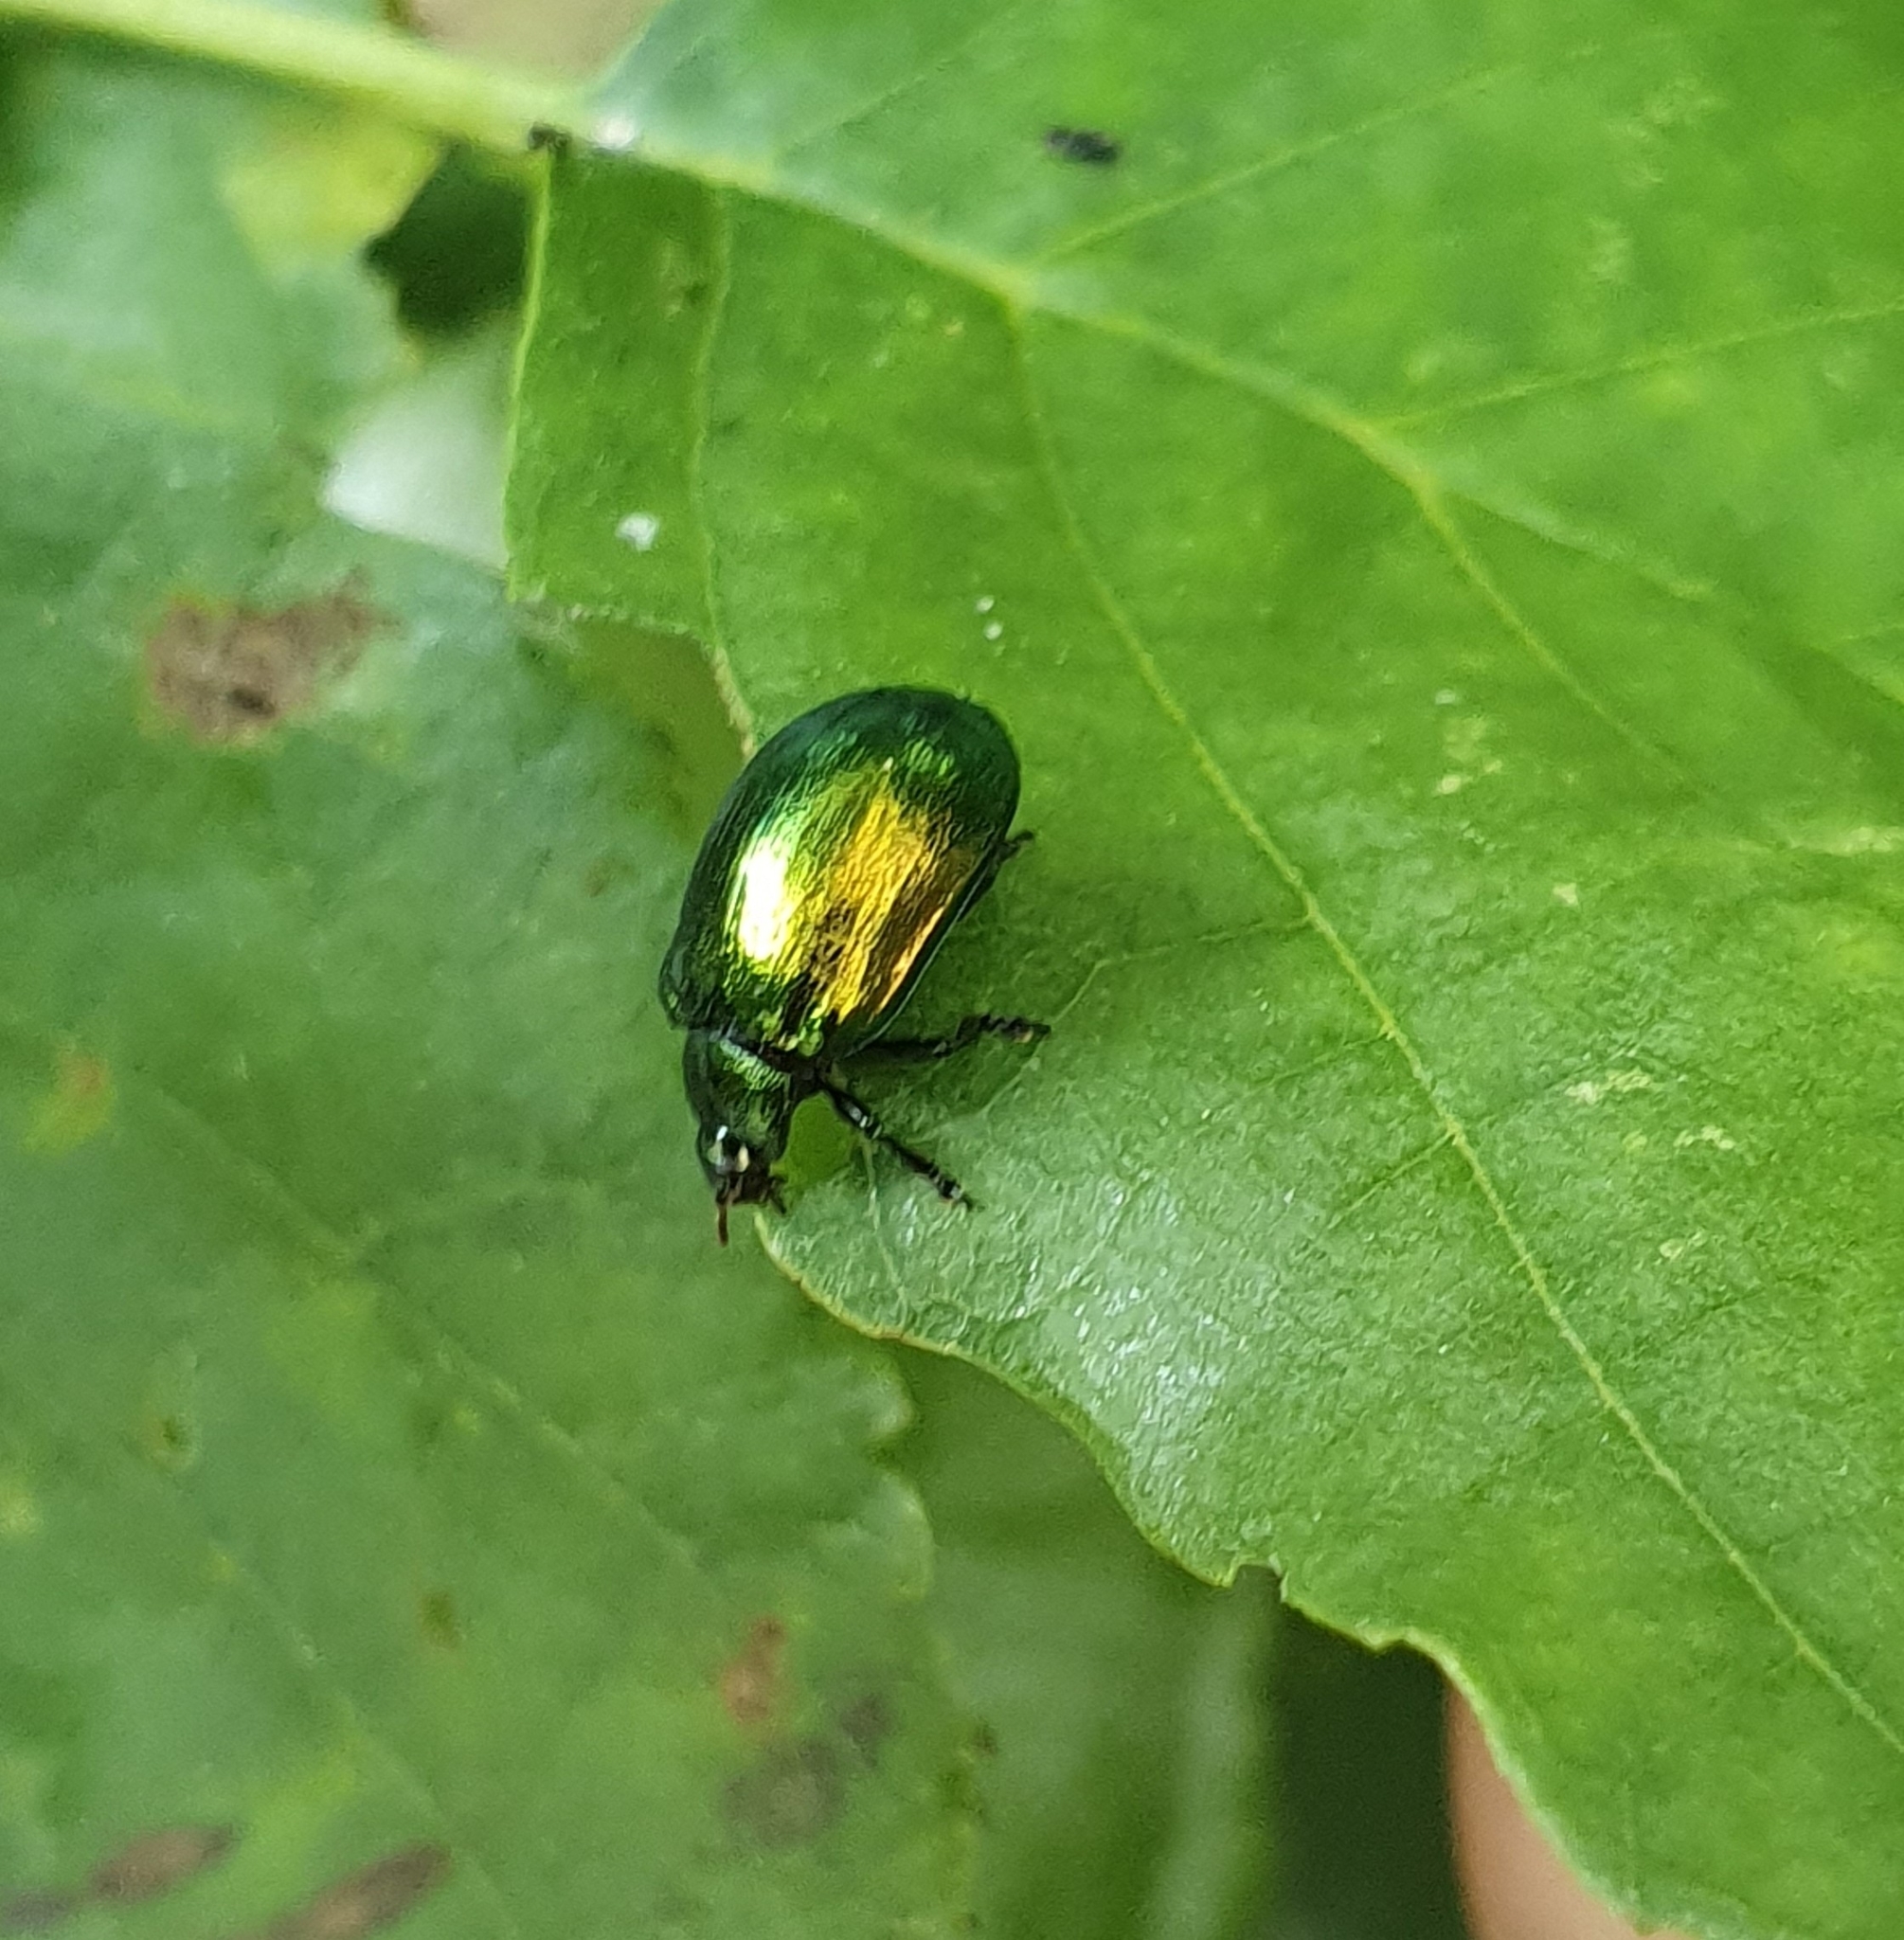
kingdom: Animalia
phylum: Arthropoda
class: Insecta
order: Coleoptera
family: Chrysomelidae
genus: Plagiosterna
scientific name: Plagiosterna aenea
